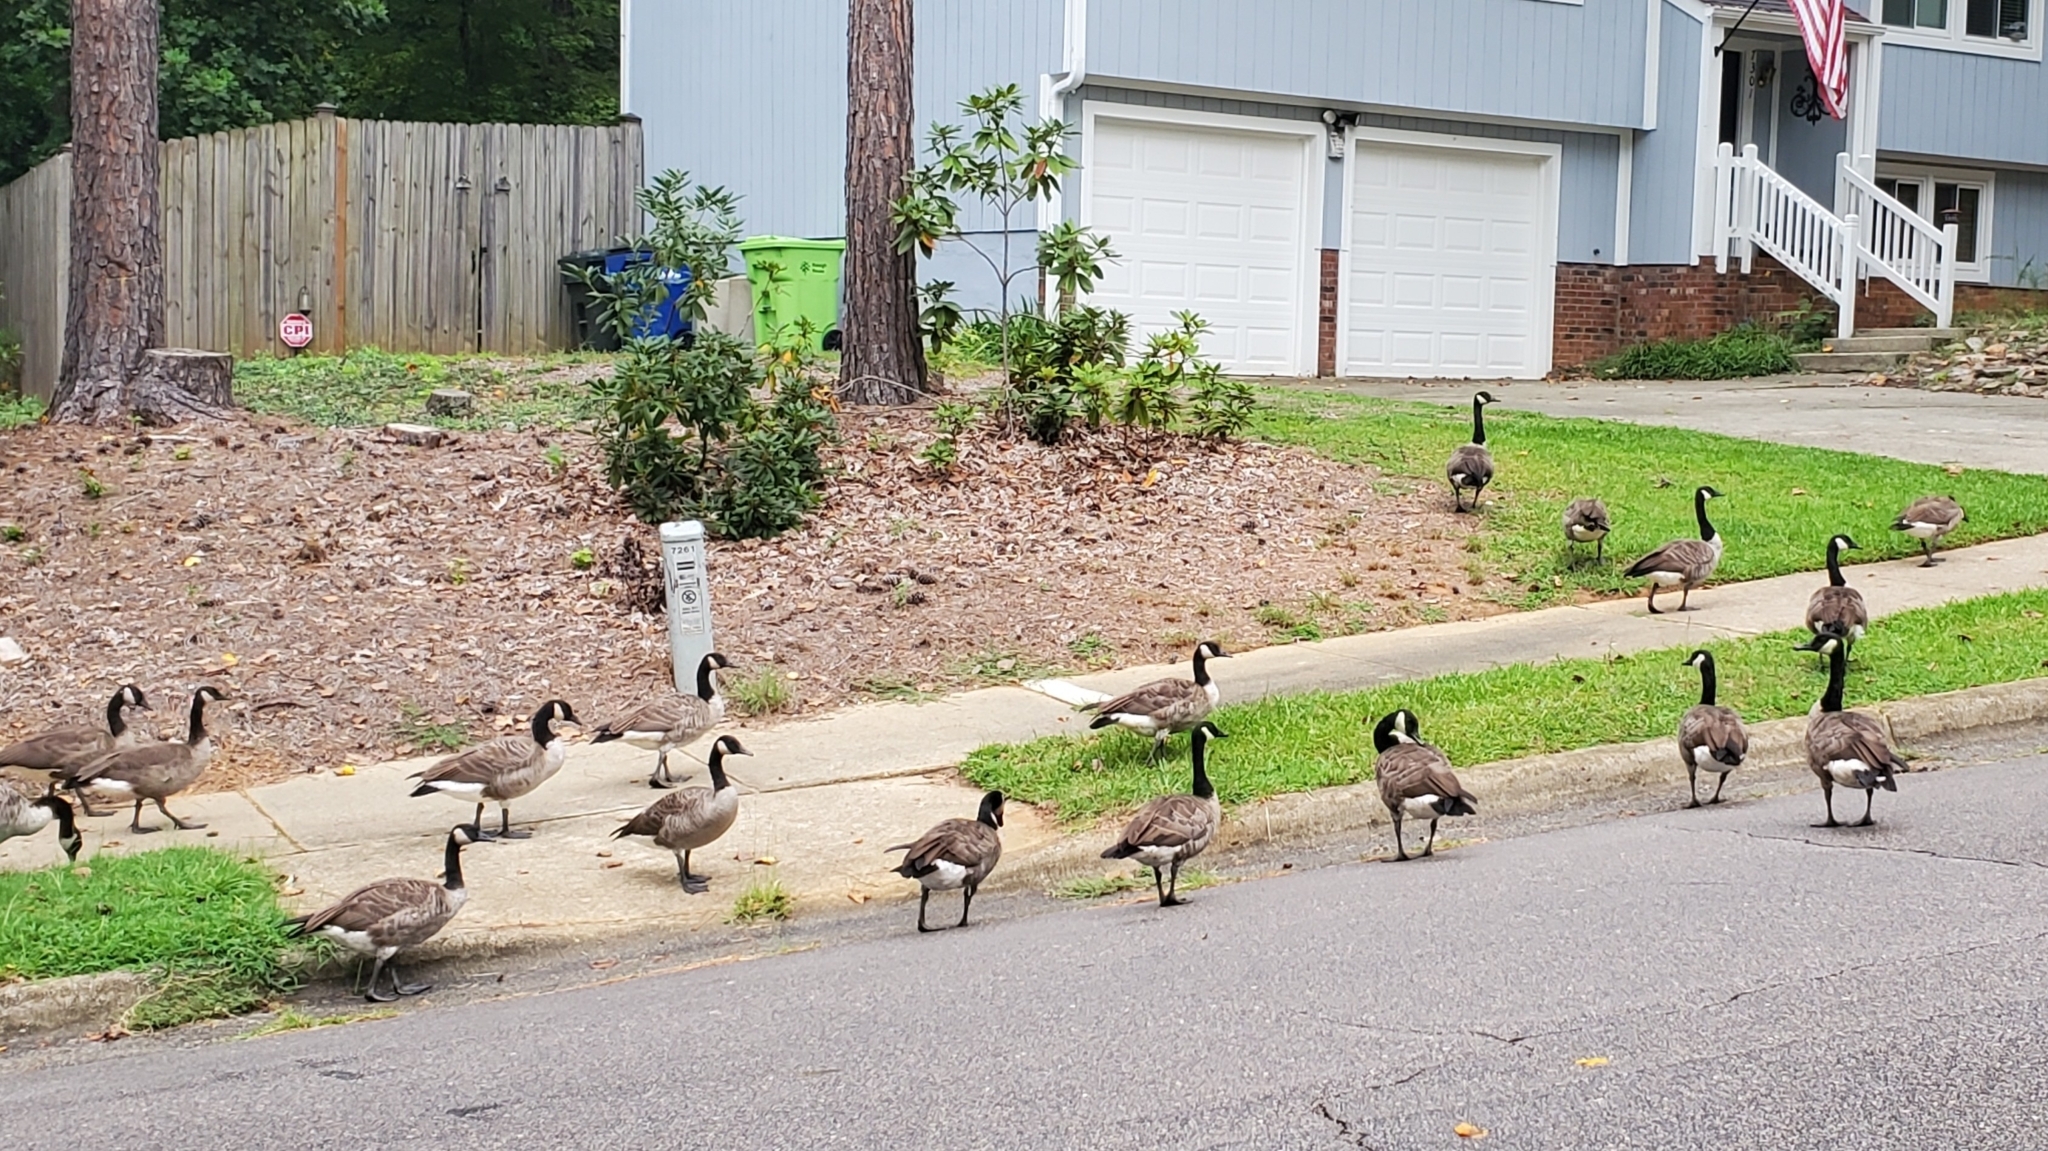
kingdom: Animalia
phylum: Chordata
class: Aves
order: Anseriformes
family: Anatidae
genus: Branta
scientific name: Branta canadensis
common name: Canada goose
